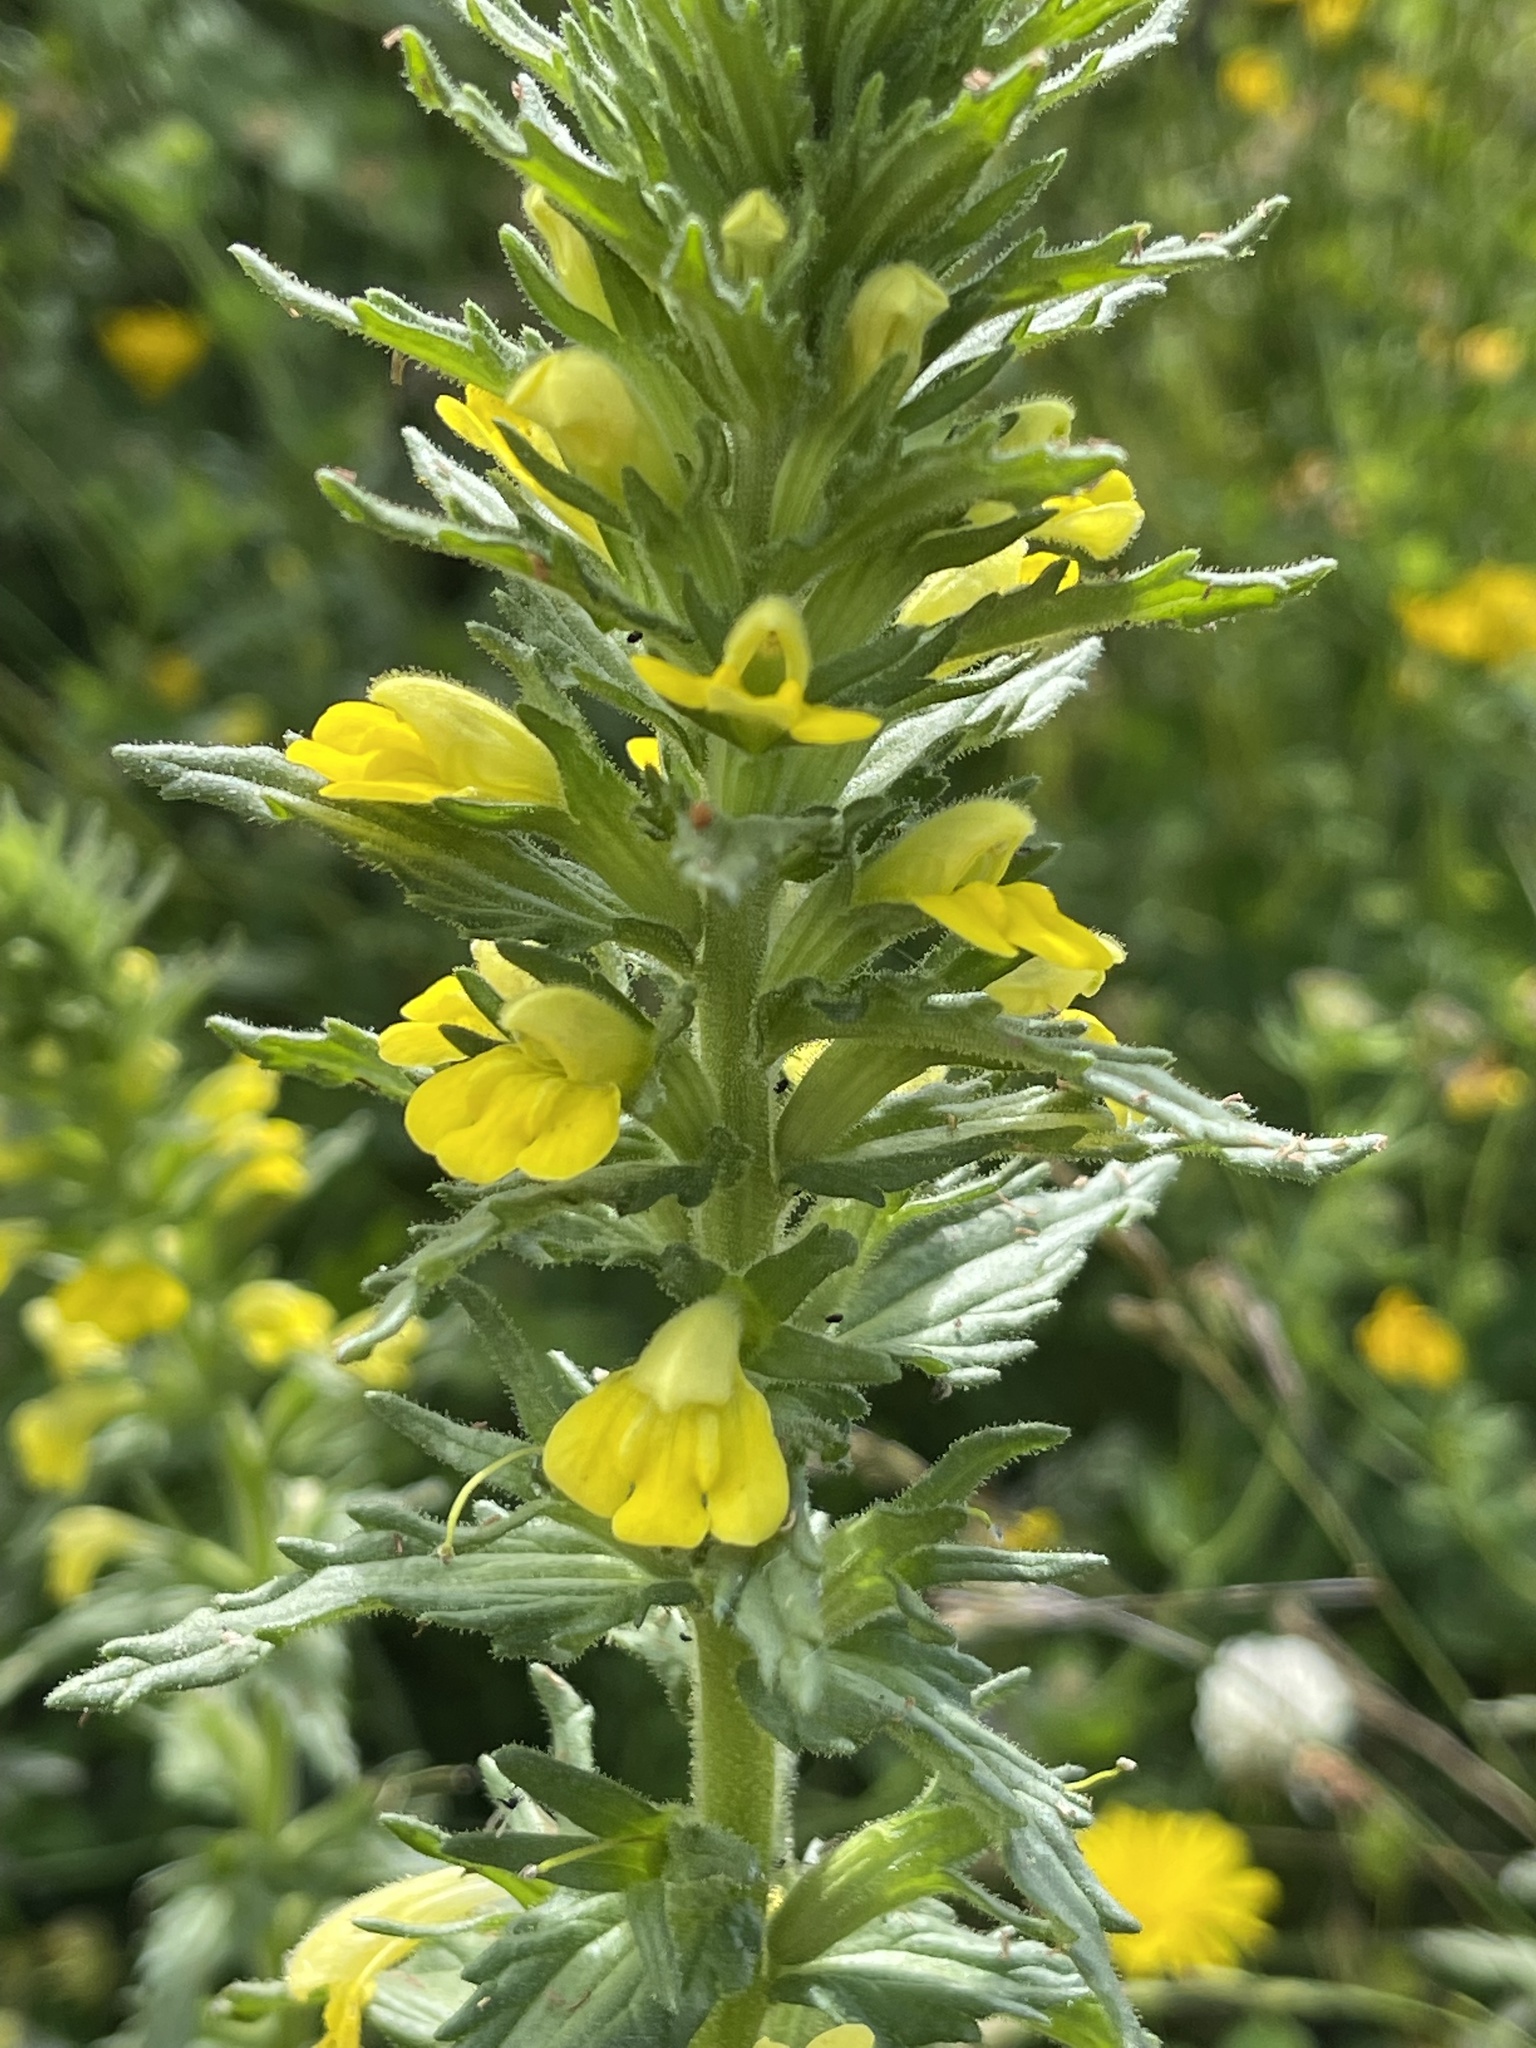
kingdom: Plantae
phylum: Tracheophyta
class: Magnoliopsida
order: Lamiales
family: Orobanchaceae
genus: Bellardia
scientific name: Bellardia viscosa
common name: Sticky parentucellia
